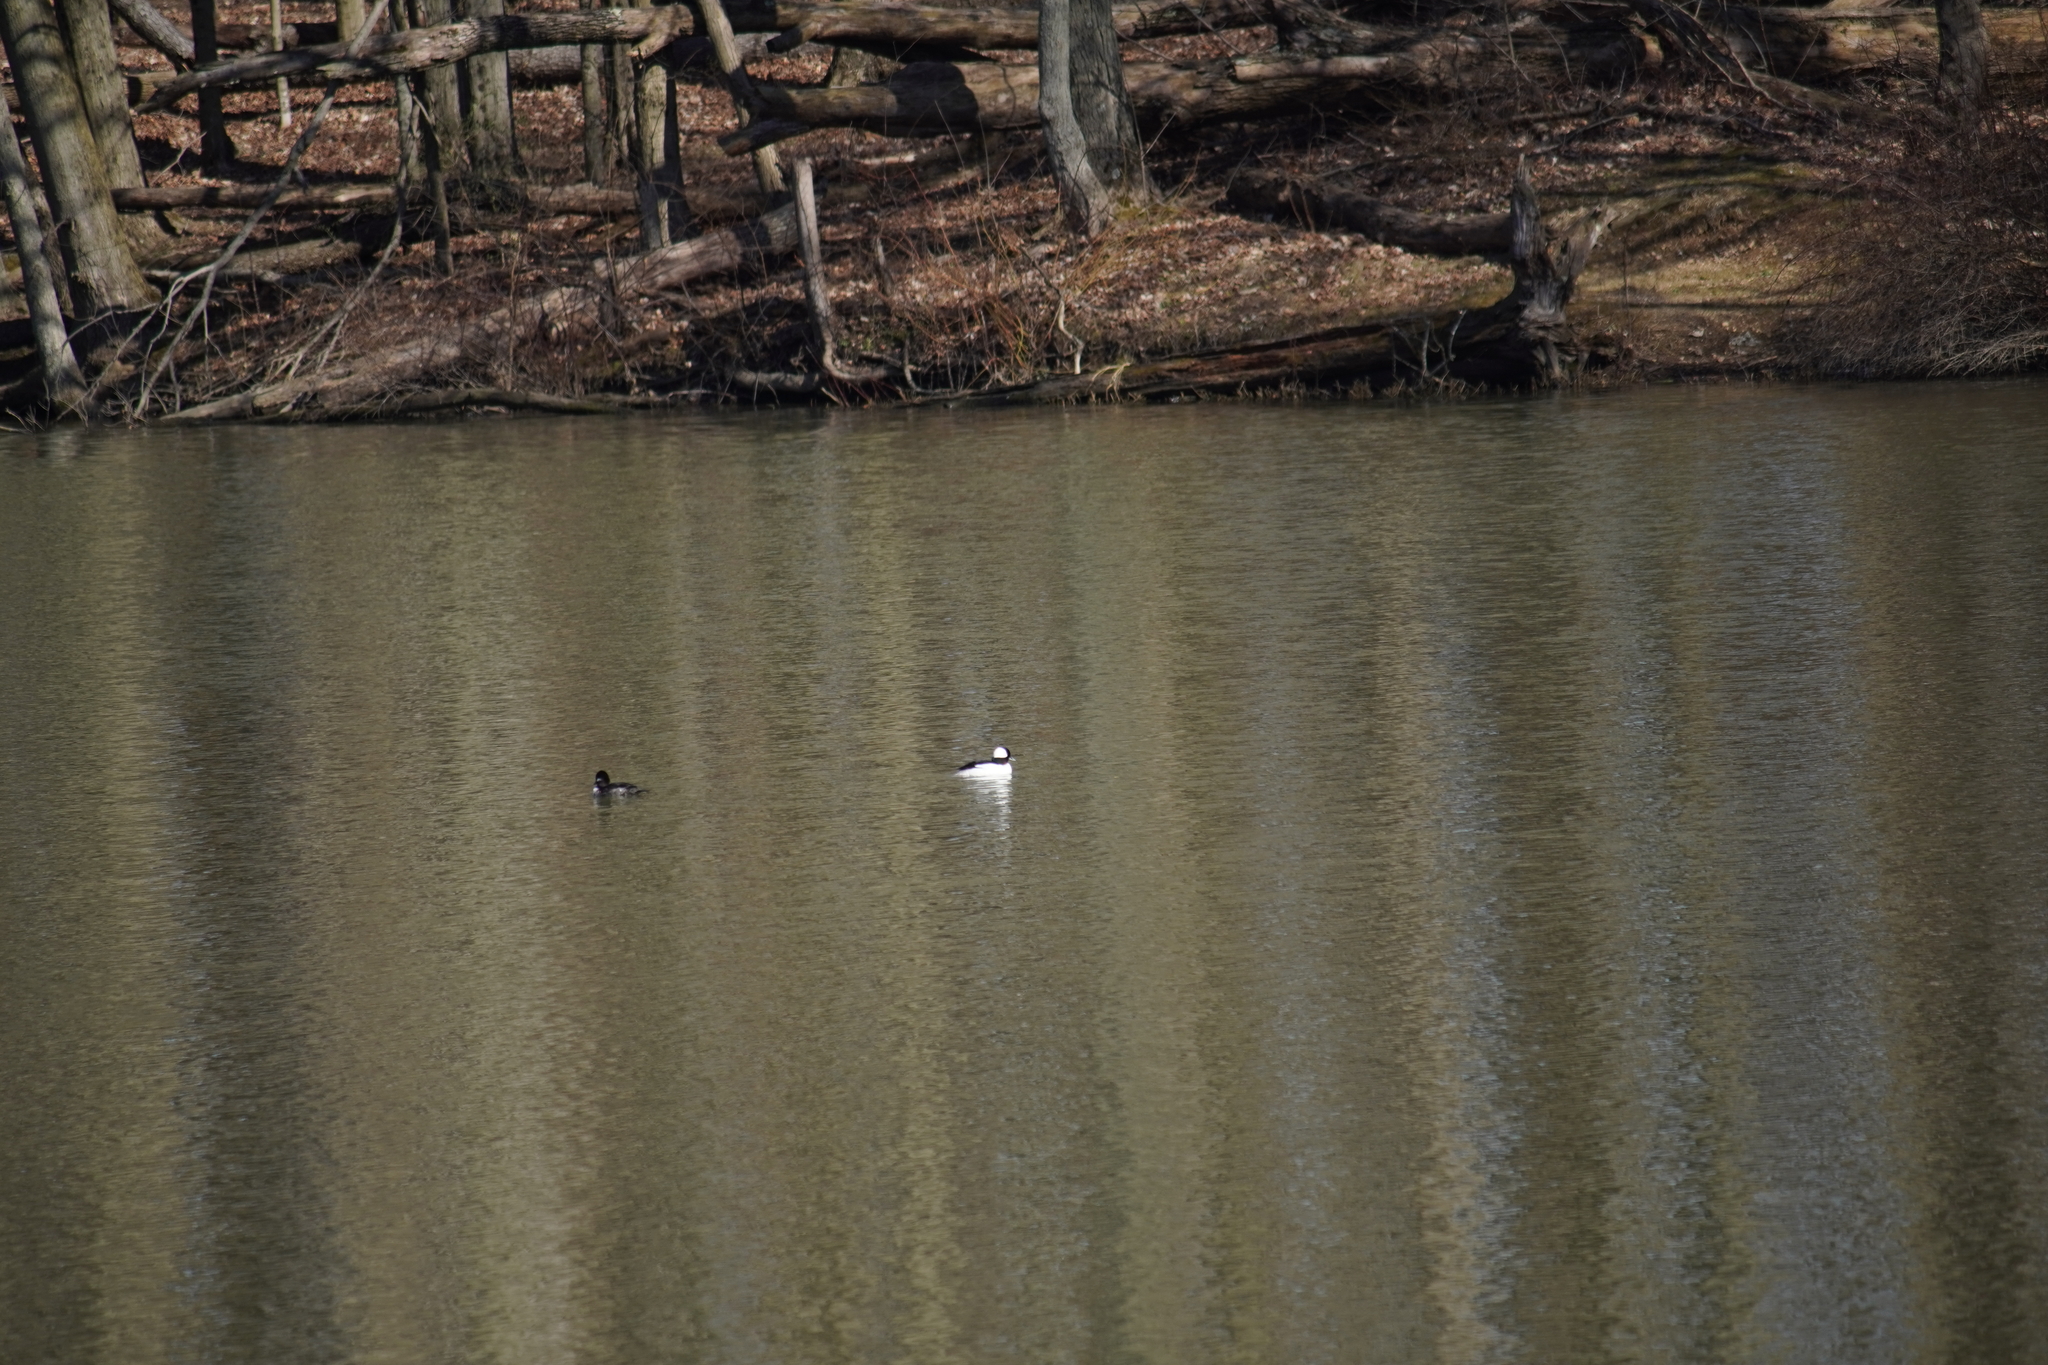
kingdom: Animalia
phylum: Chordata
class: Aves
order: Anseriformes
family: Anatidae
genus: Bucephala
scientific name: Bucephala albeola
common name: Bufflehead
